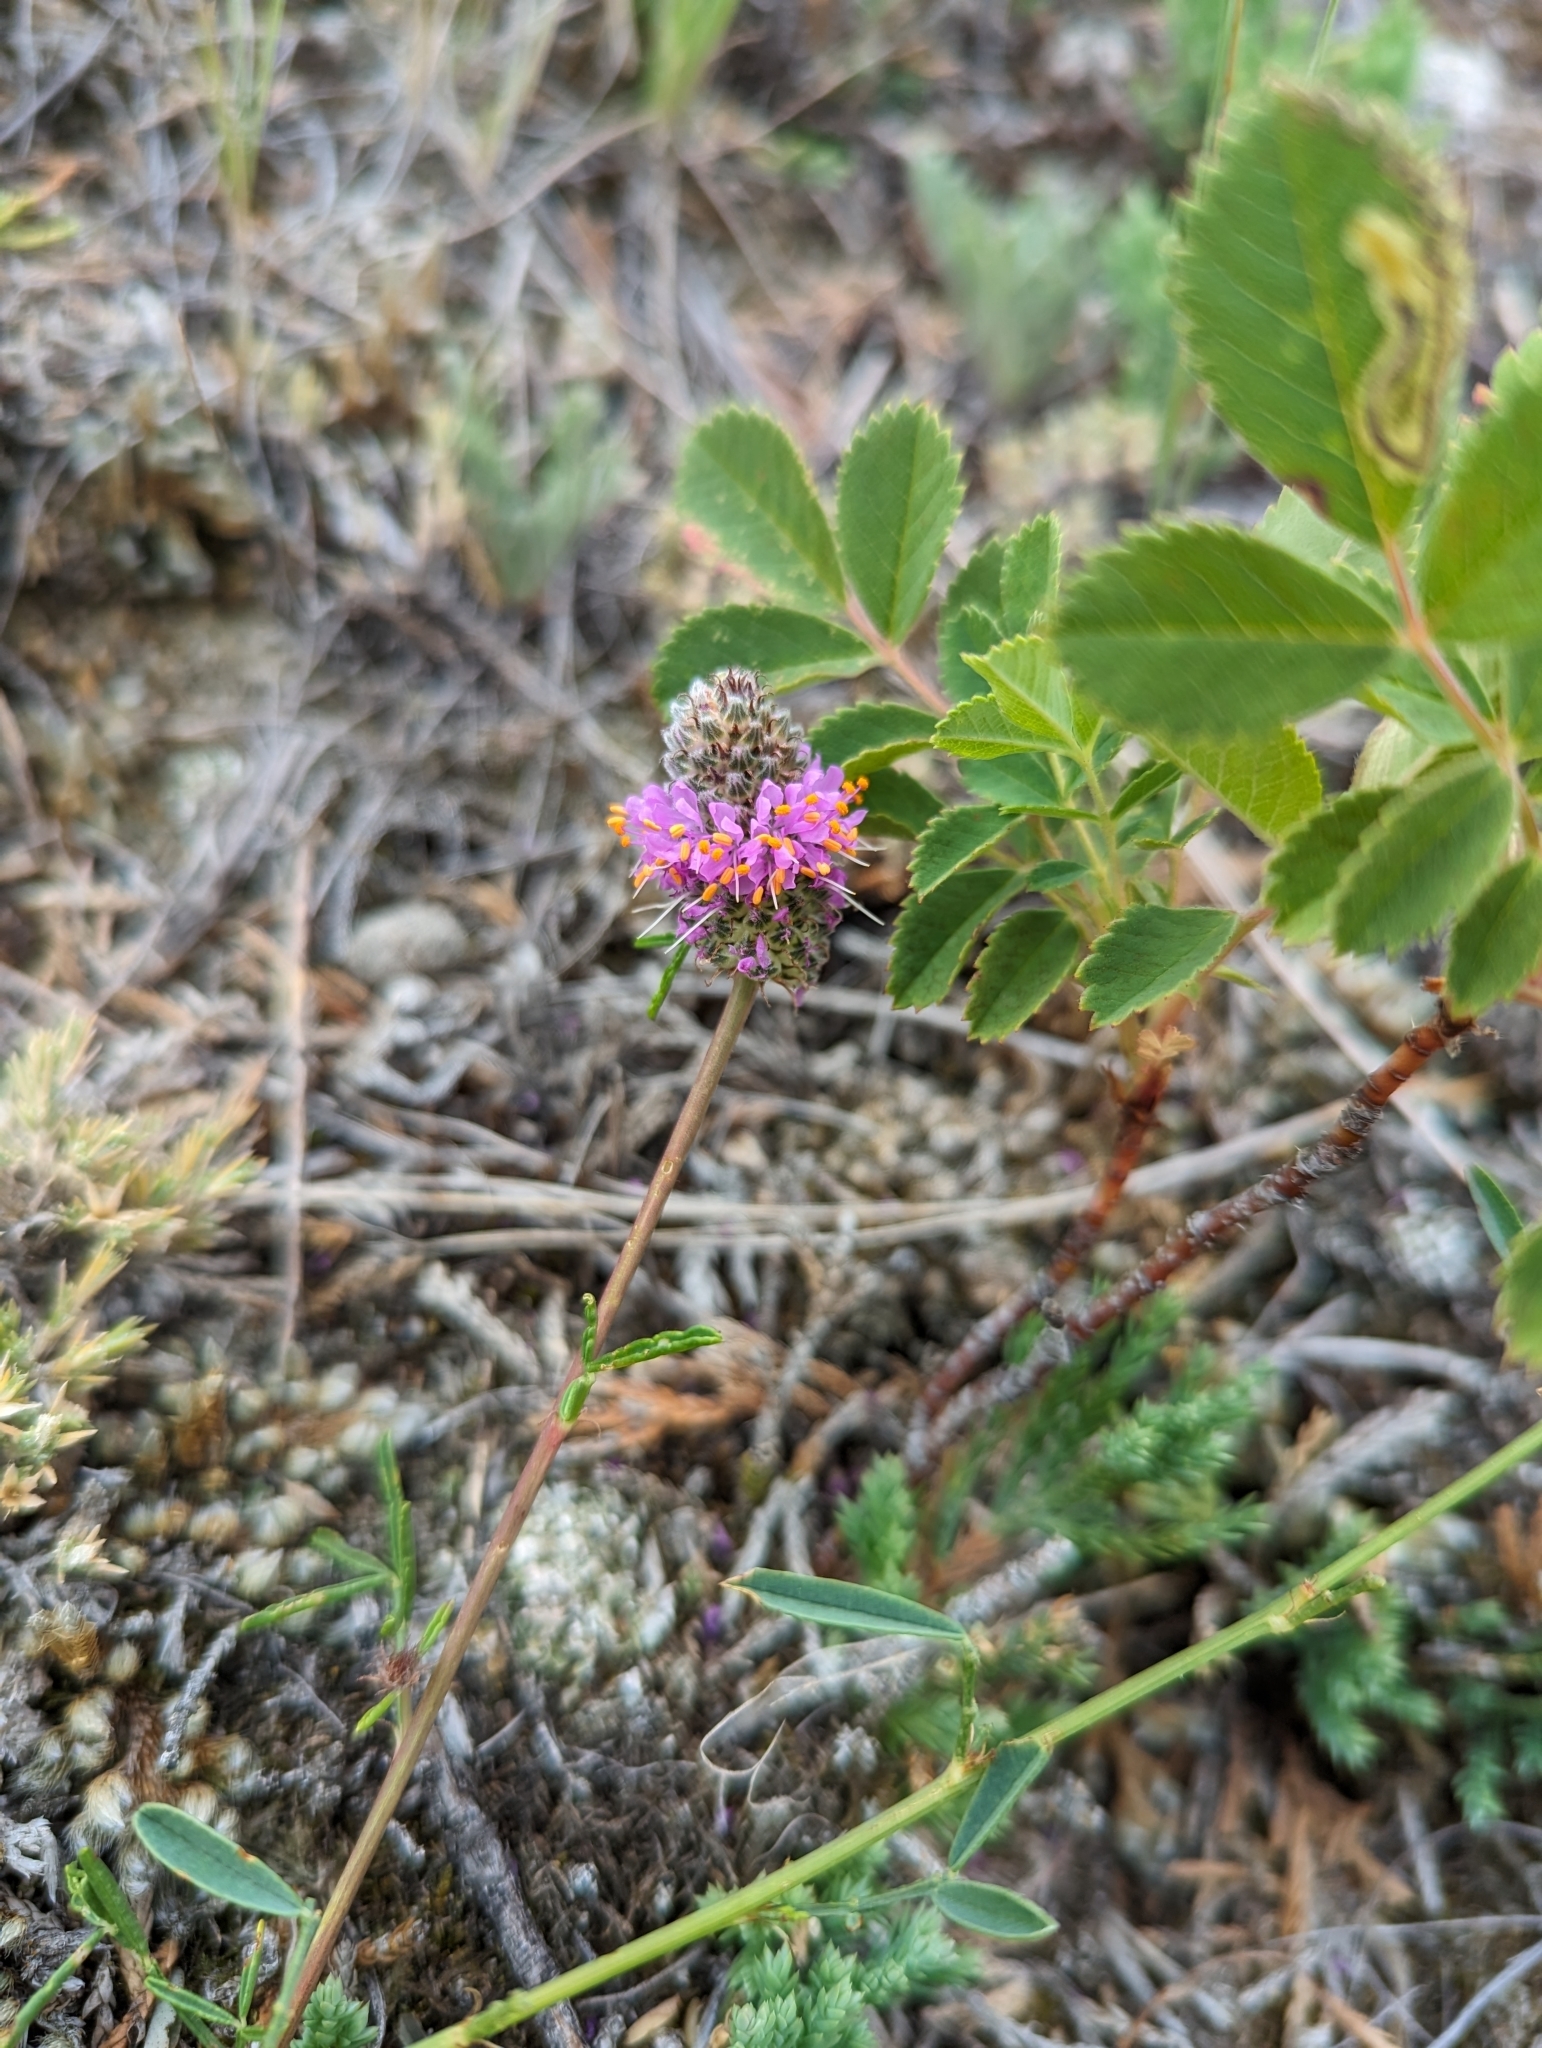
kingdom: Plantae
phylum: Tracheophyta
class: Magnoliopsida
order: Fabales
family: Fabaceae
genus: Dalea
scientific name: Dalea purpurea
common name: Purple prairie-clover
